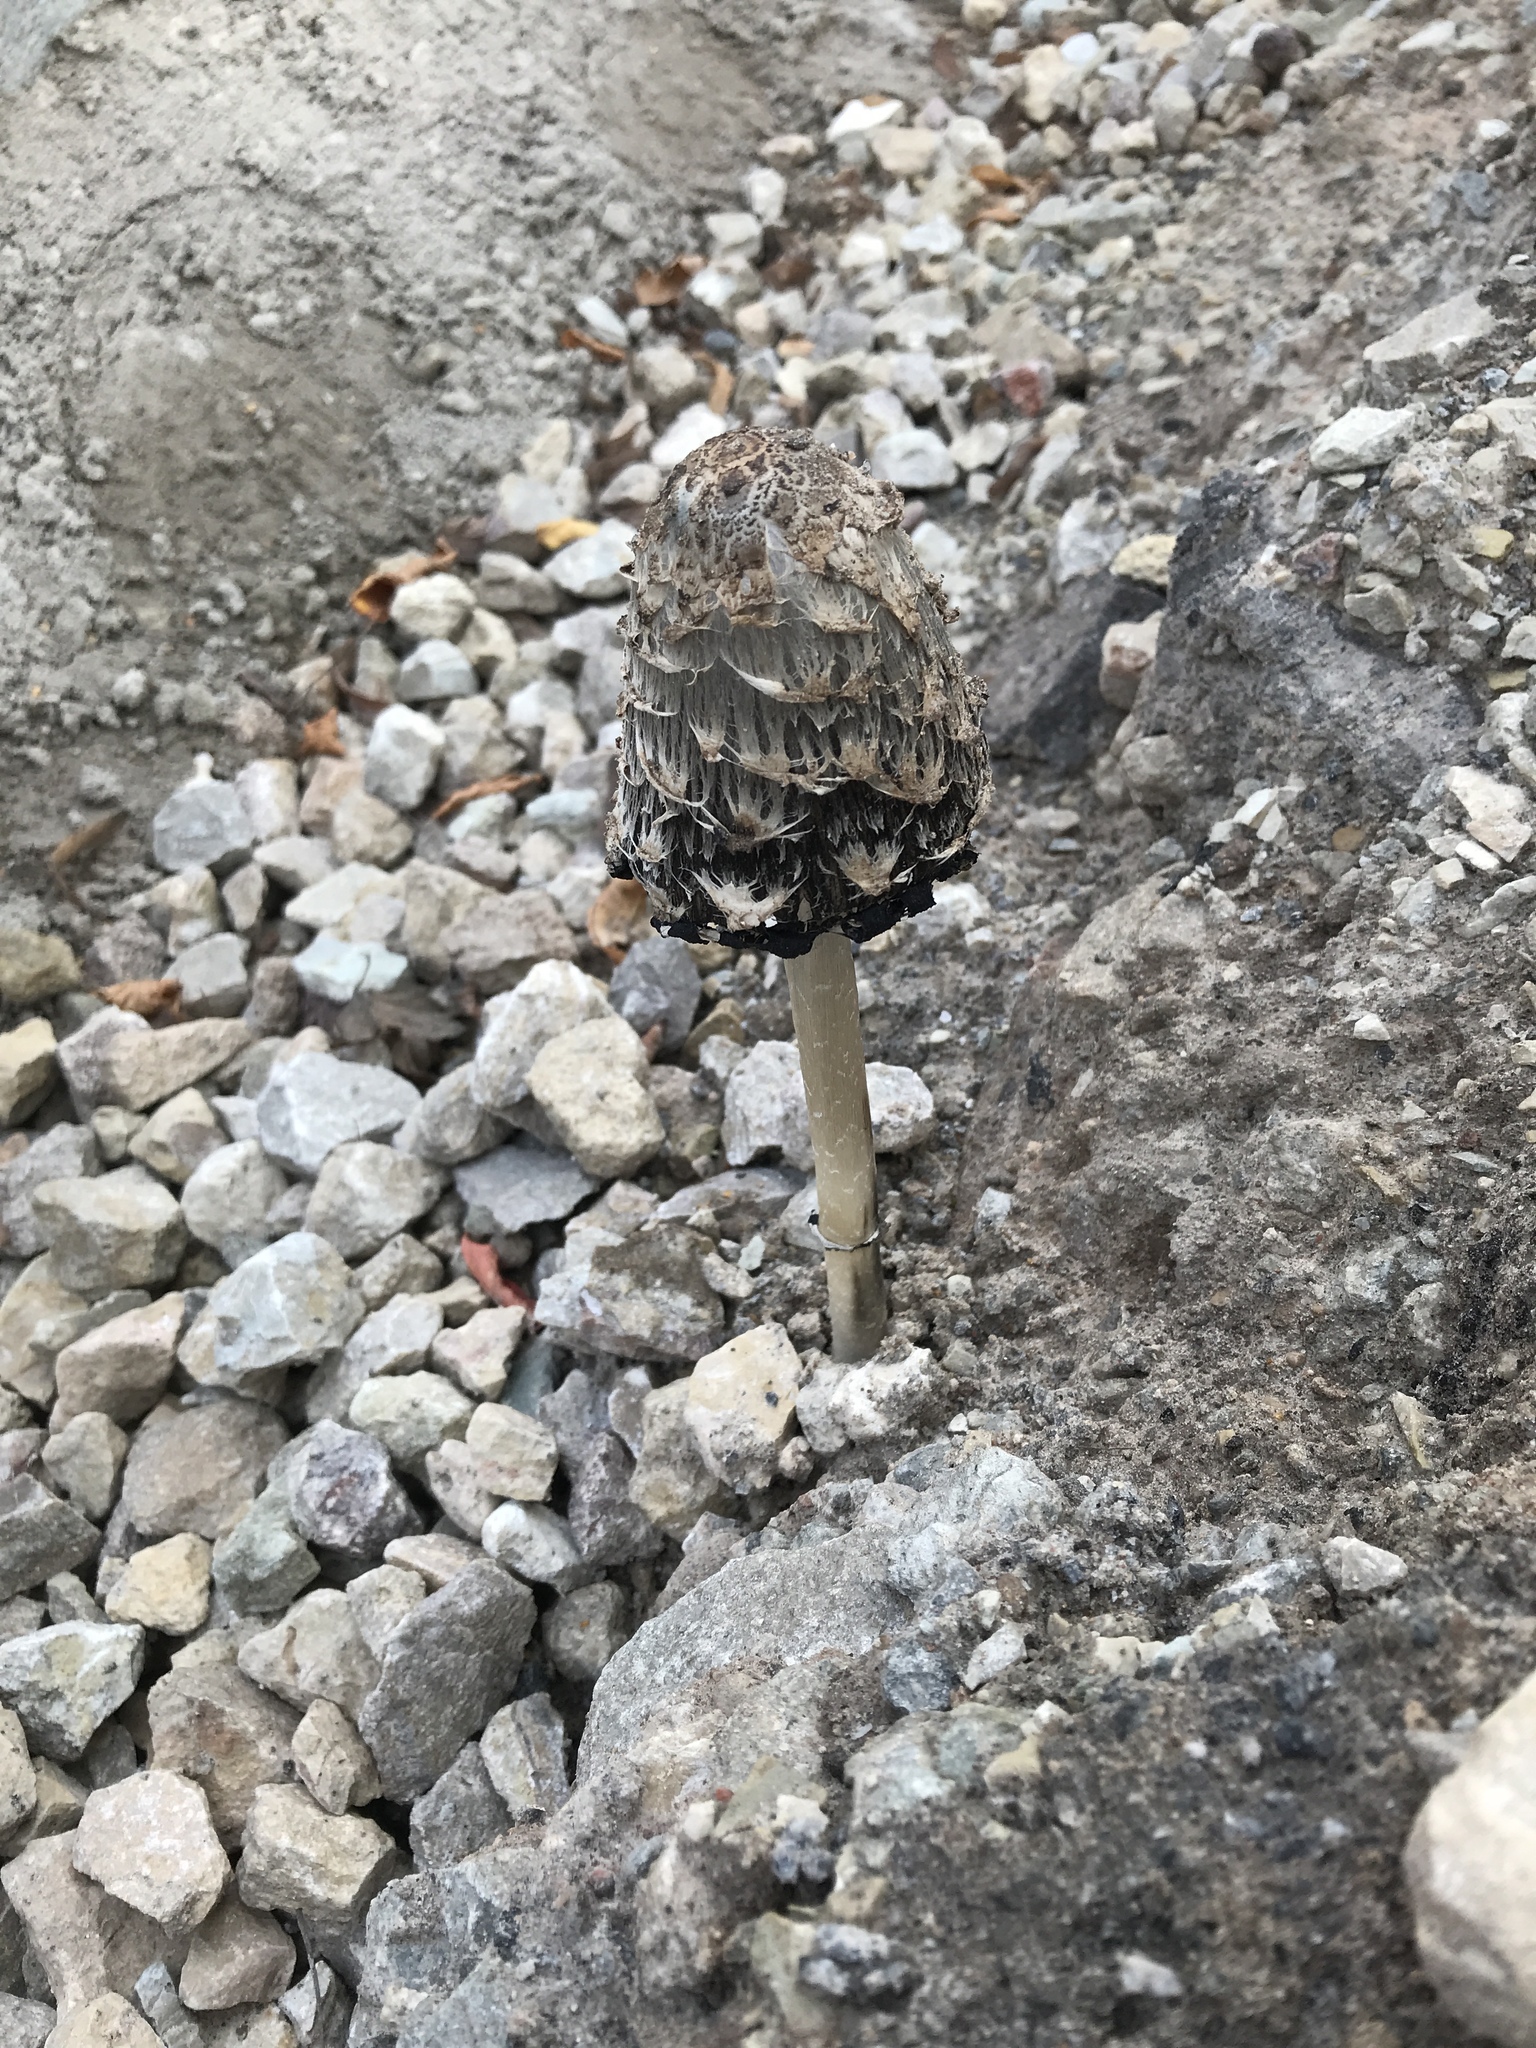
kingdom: Fungi
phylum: Basidiomycota
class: Agaricomycetes
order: Agaricales
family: Agaricaceae
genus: Coprinus
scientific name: Coprinus comatus
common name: Lawyer's wig
